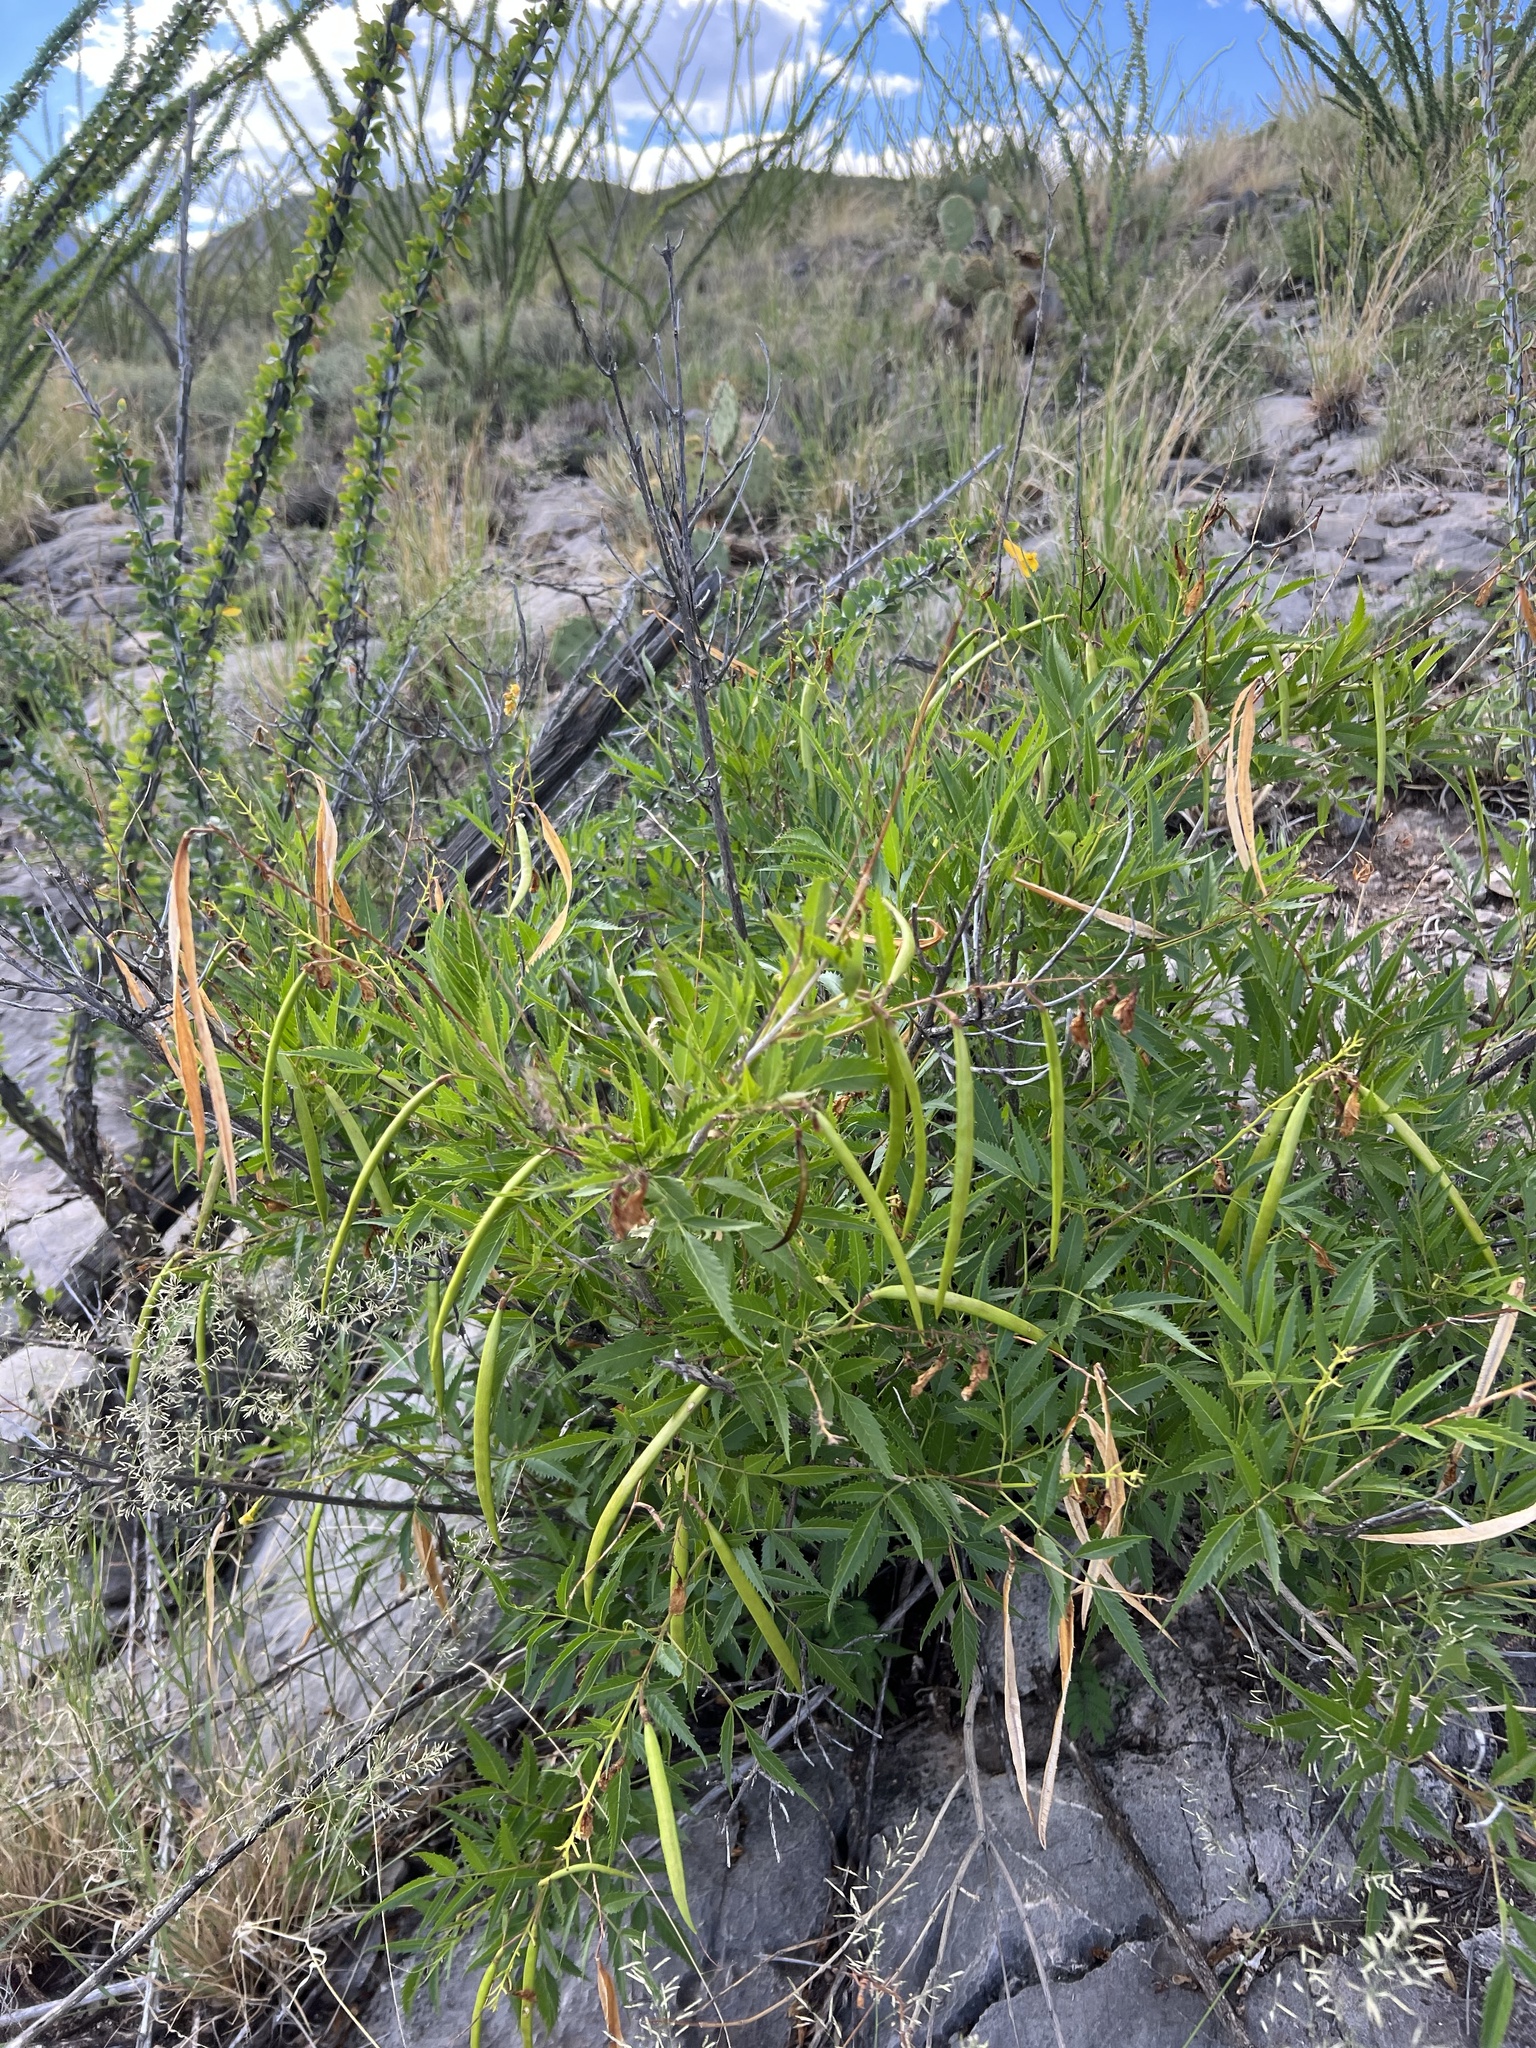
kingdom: Plantae
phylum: Tracheophyta
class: Magnoliopsida
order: Lamiales
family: Bignoniaceae
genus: Tecoma
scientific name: Tecoma stans
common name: Yellow trumpetbush
